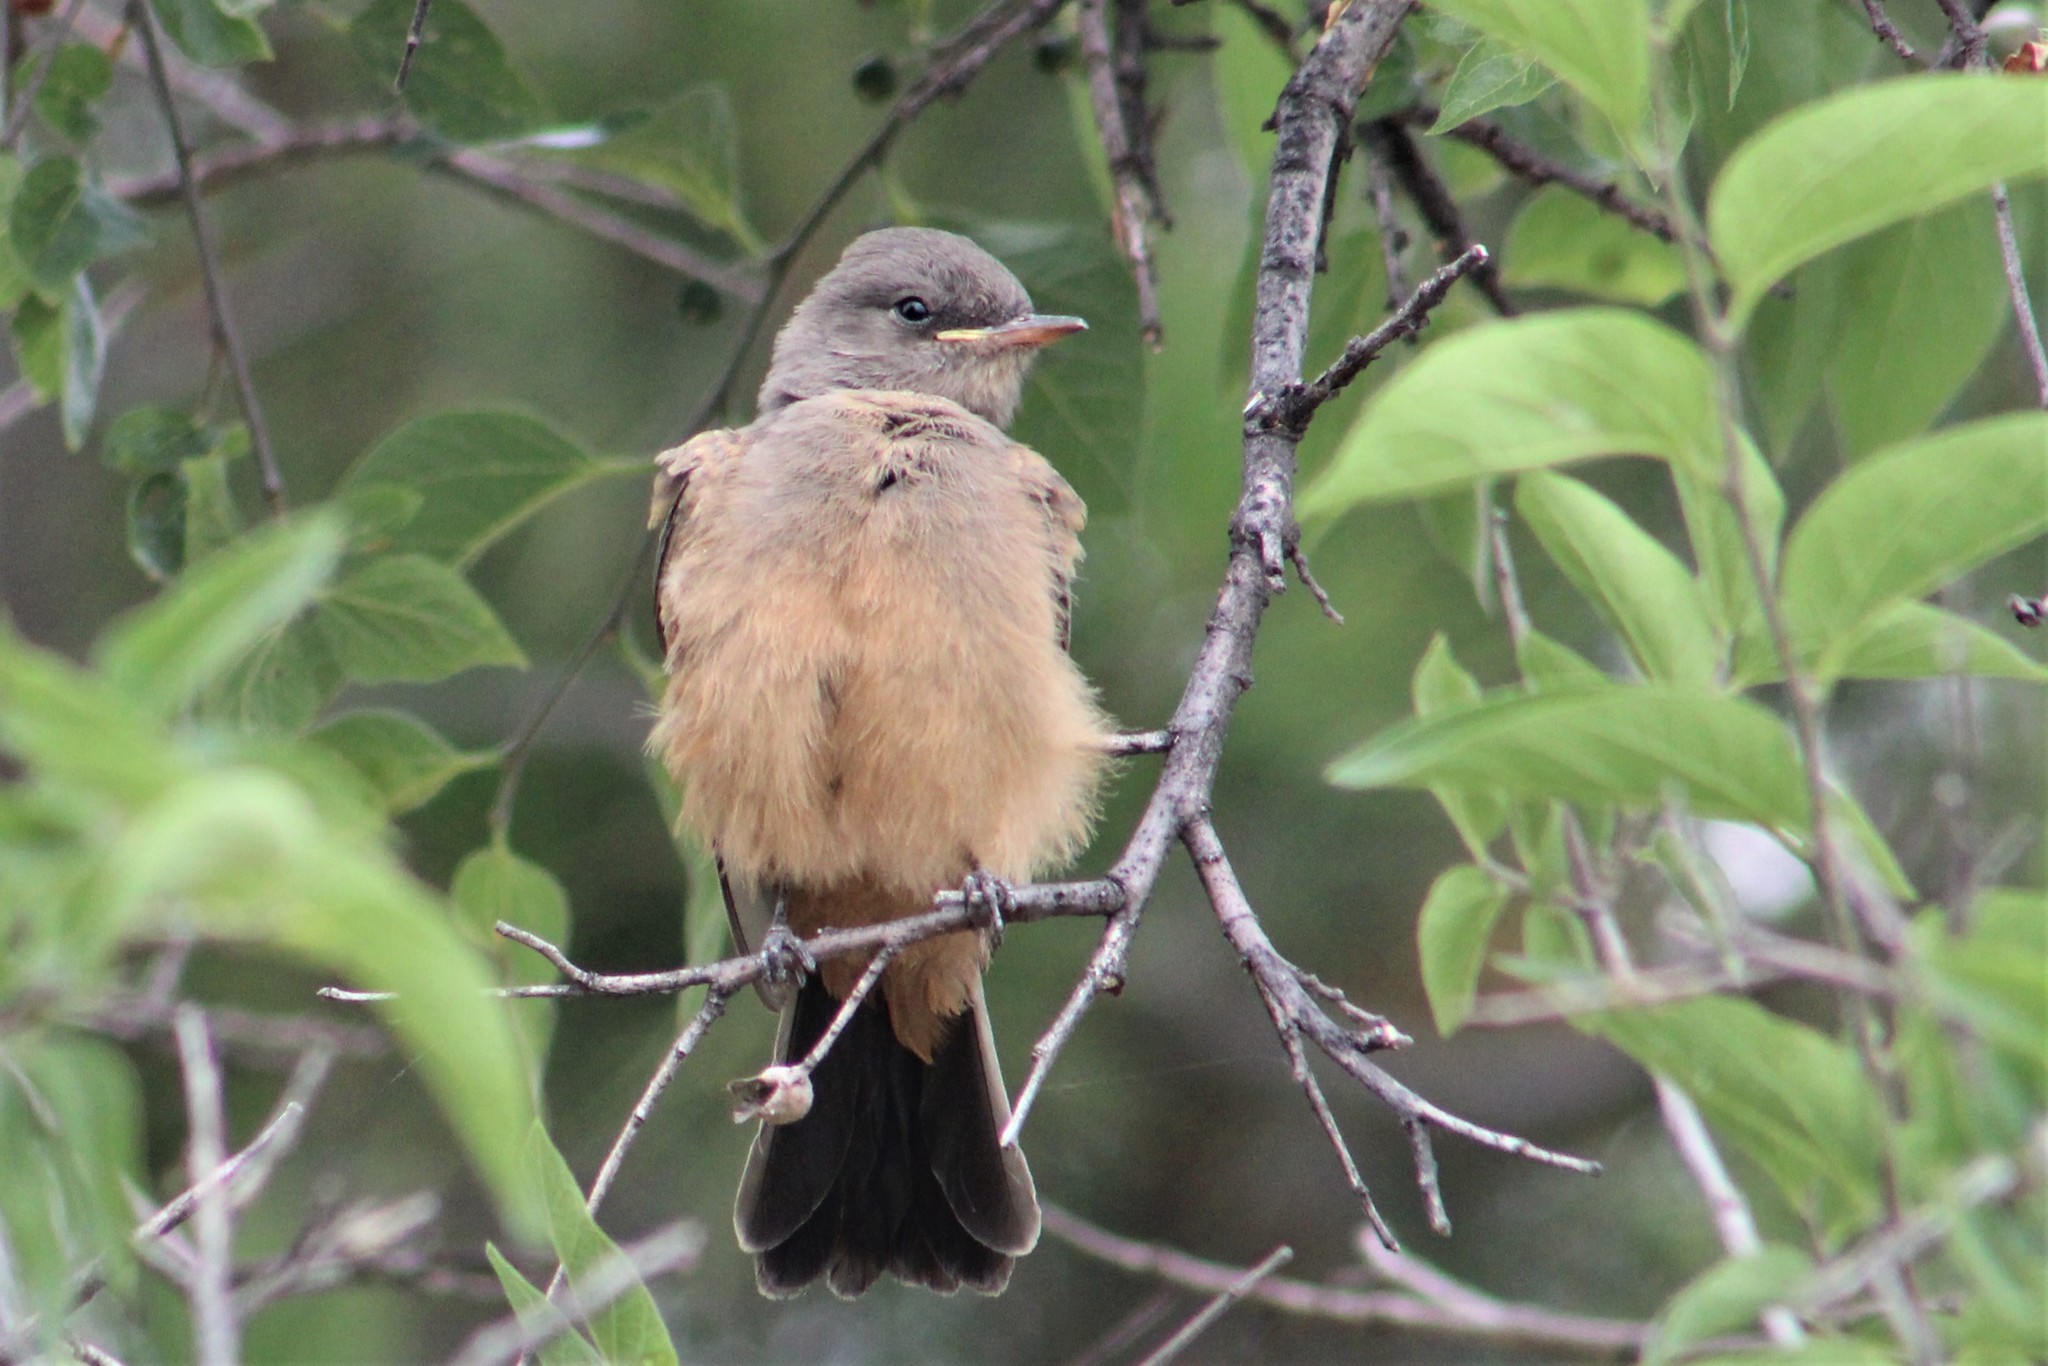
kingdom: Animalia
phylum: Chordata
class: Aves
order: Passeriformes
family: Tyrannidae
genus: Sayornis
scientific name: Sayornis saya
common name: Say's phoebe
